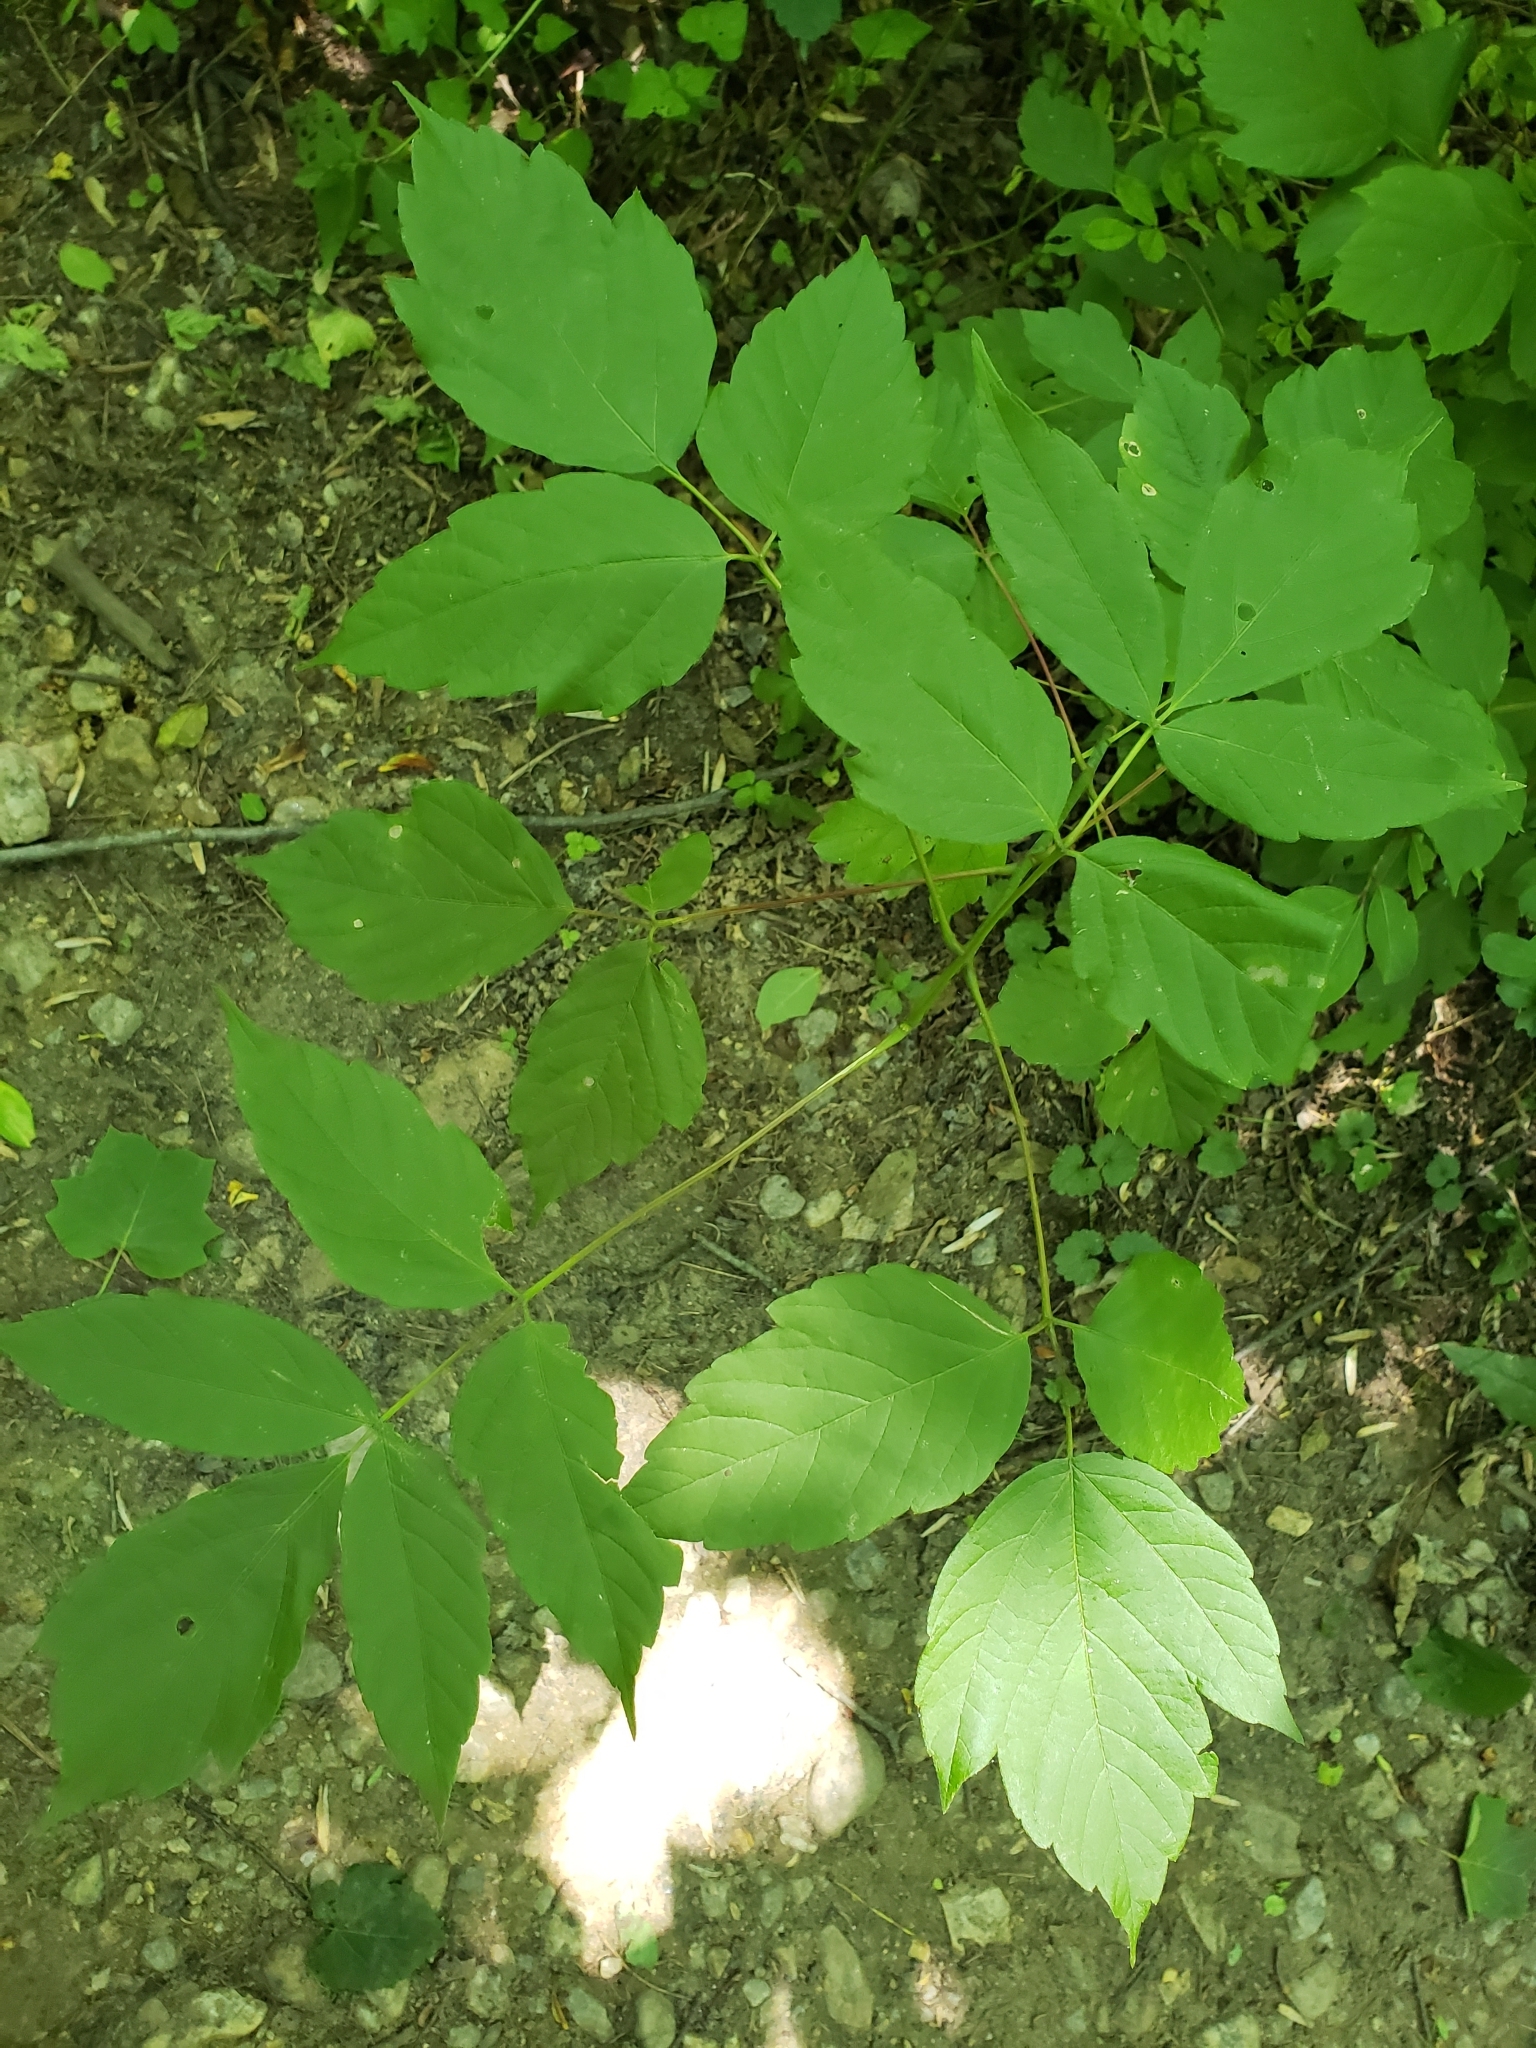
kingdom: Plantae
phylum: Tracheophyta
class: Magnoliopsida
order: Sapindales
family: Sapindaceae
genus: Acer
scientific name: Acer negundo
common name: Ashleaf maple
